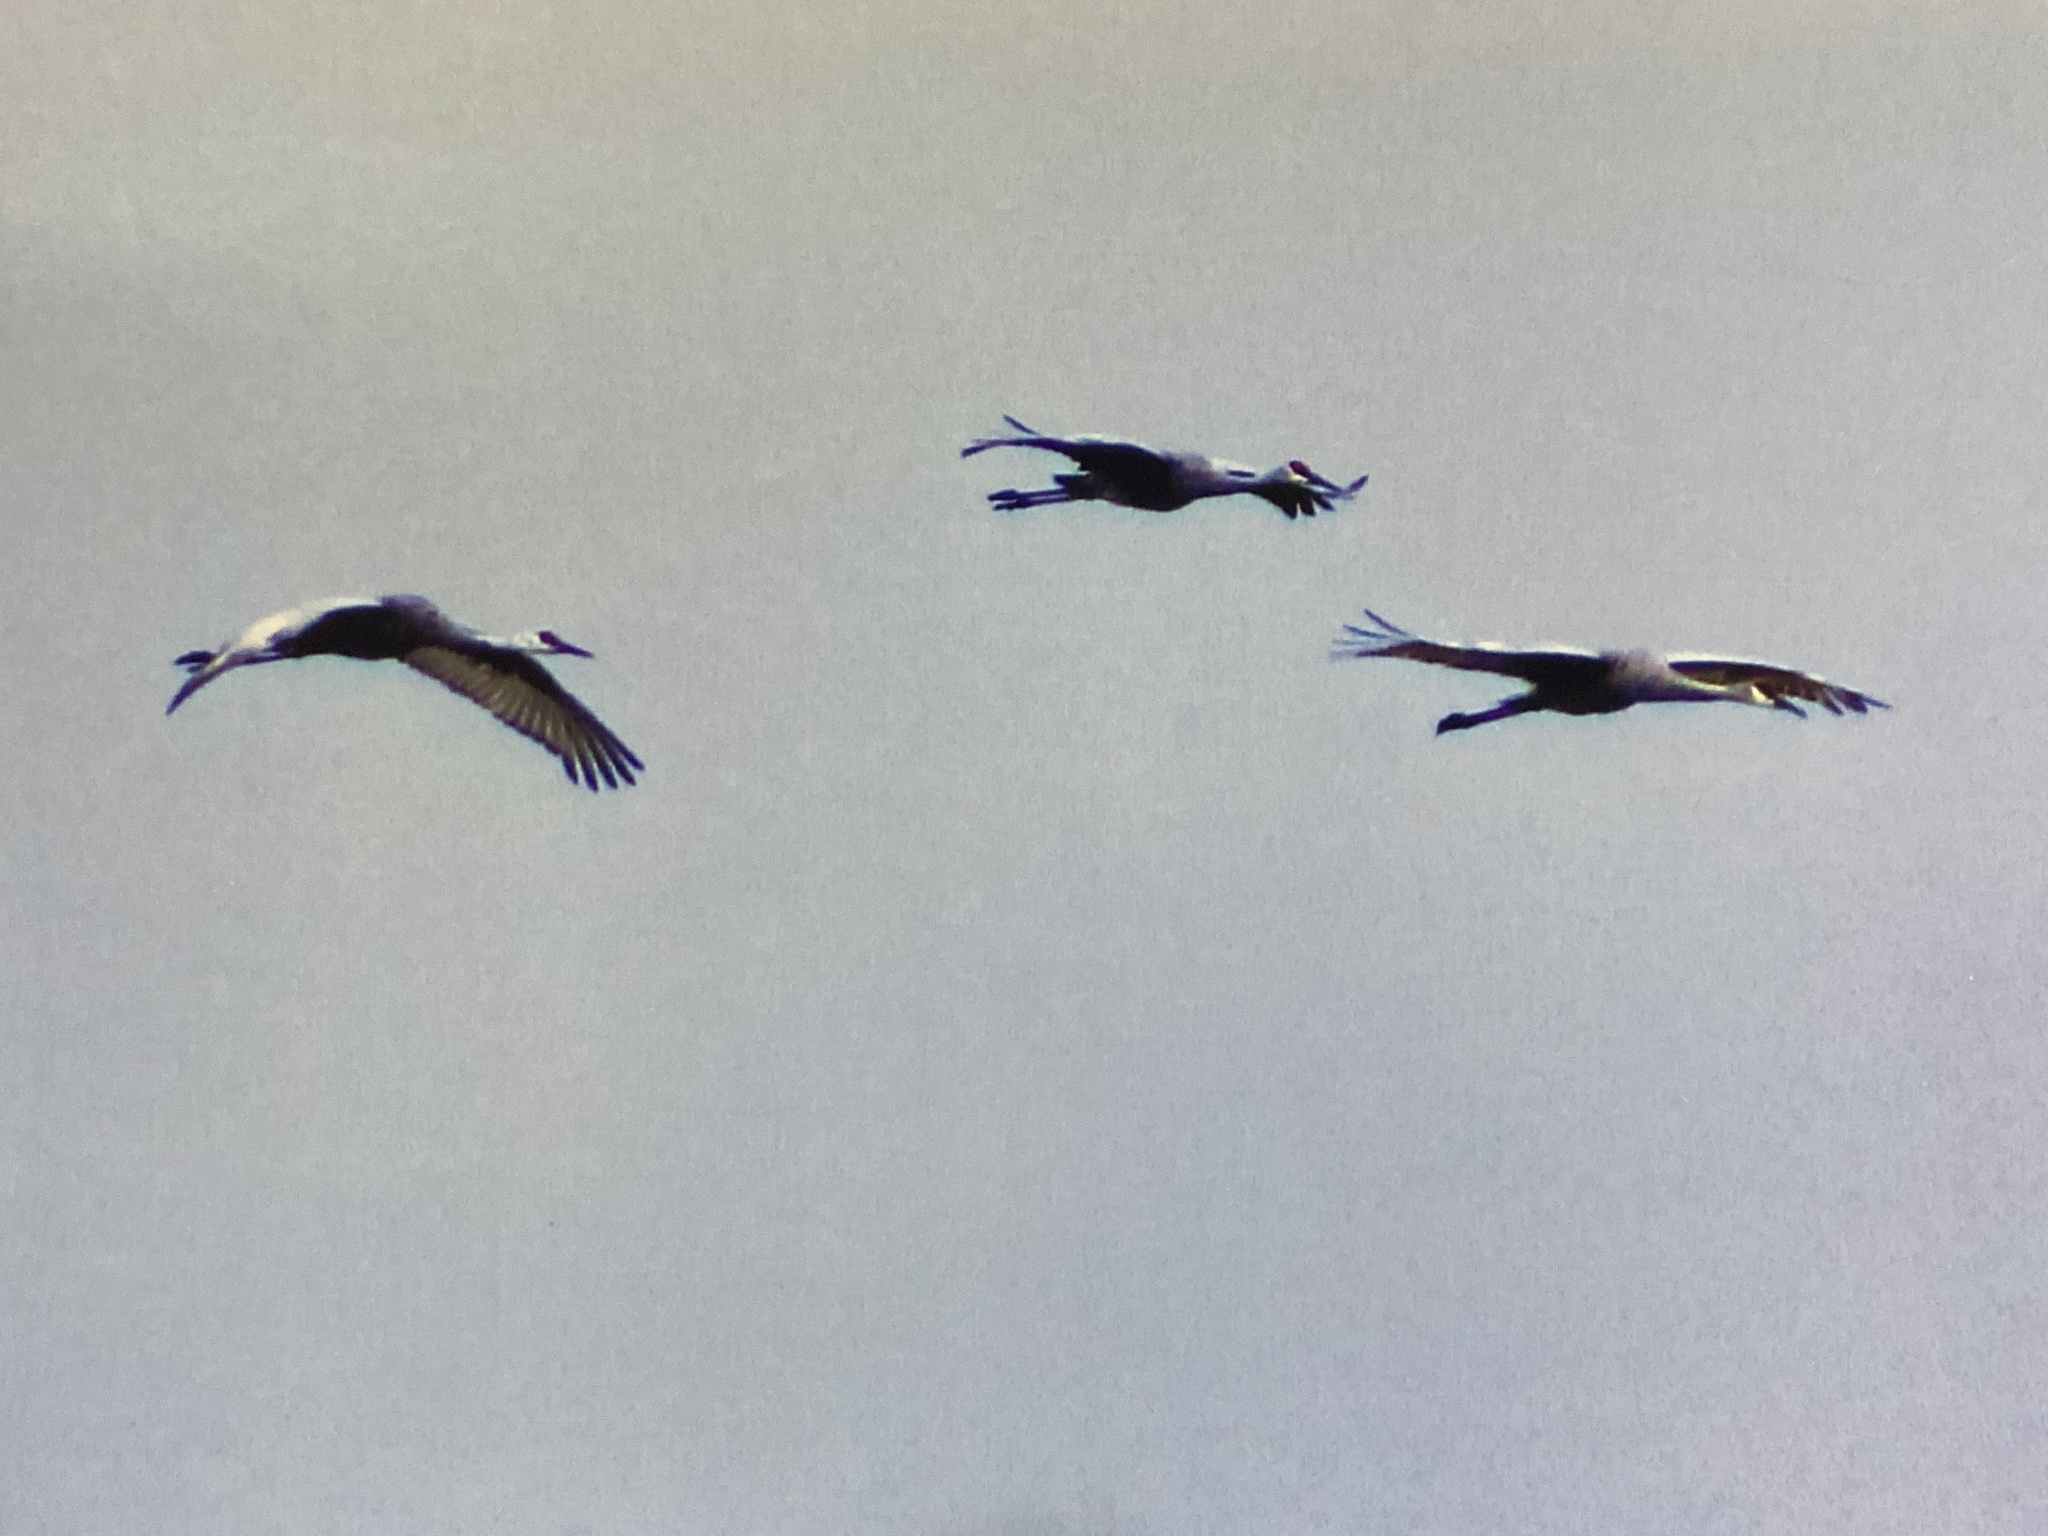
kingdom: Animalia
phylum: Chordata
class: Aves
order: Gruiformes
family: Gruidae
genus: Grus
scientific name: Grus canadensis
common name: Sandhill crane
